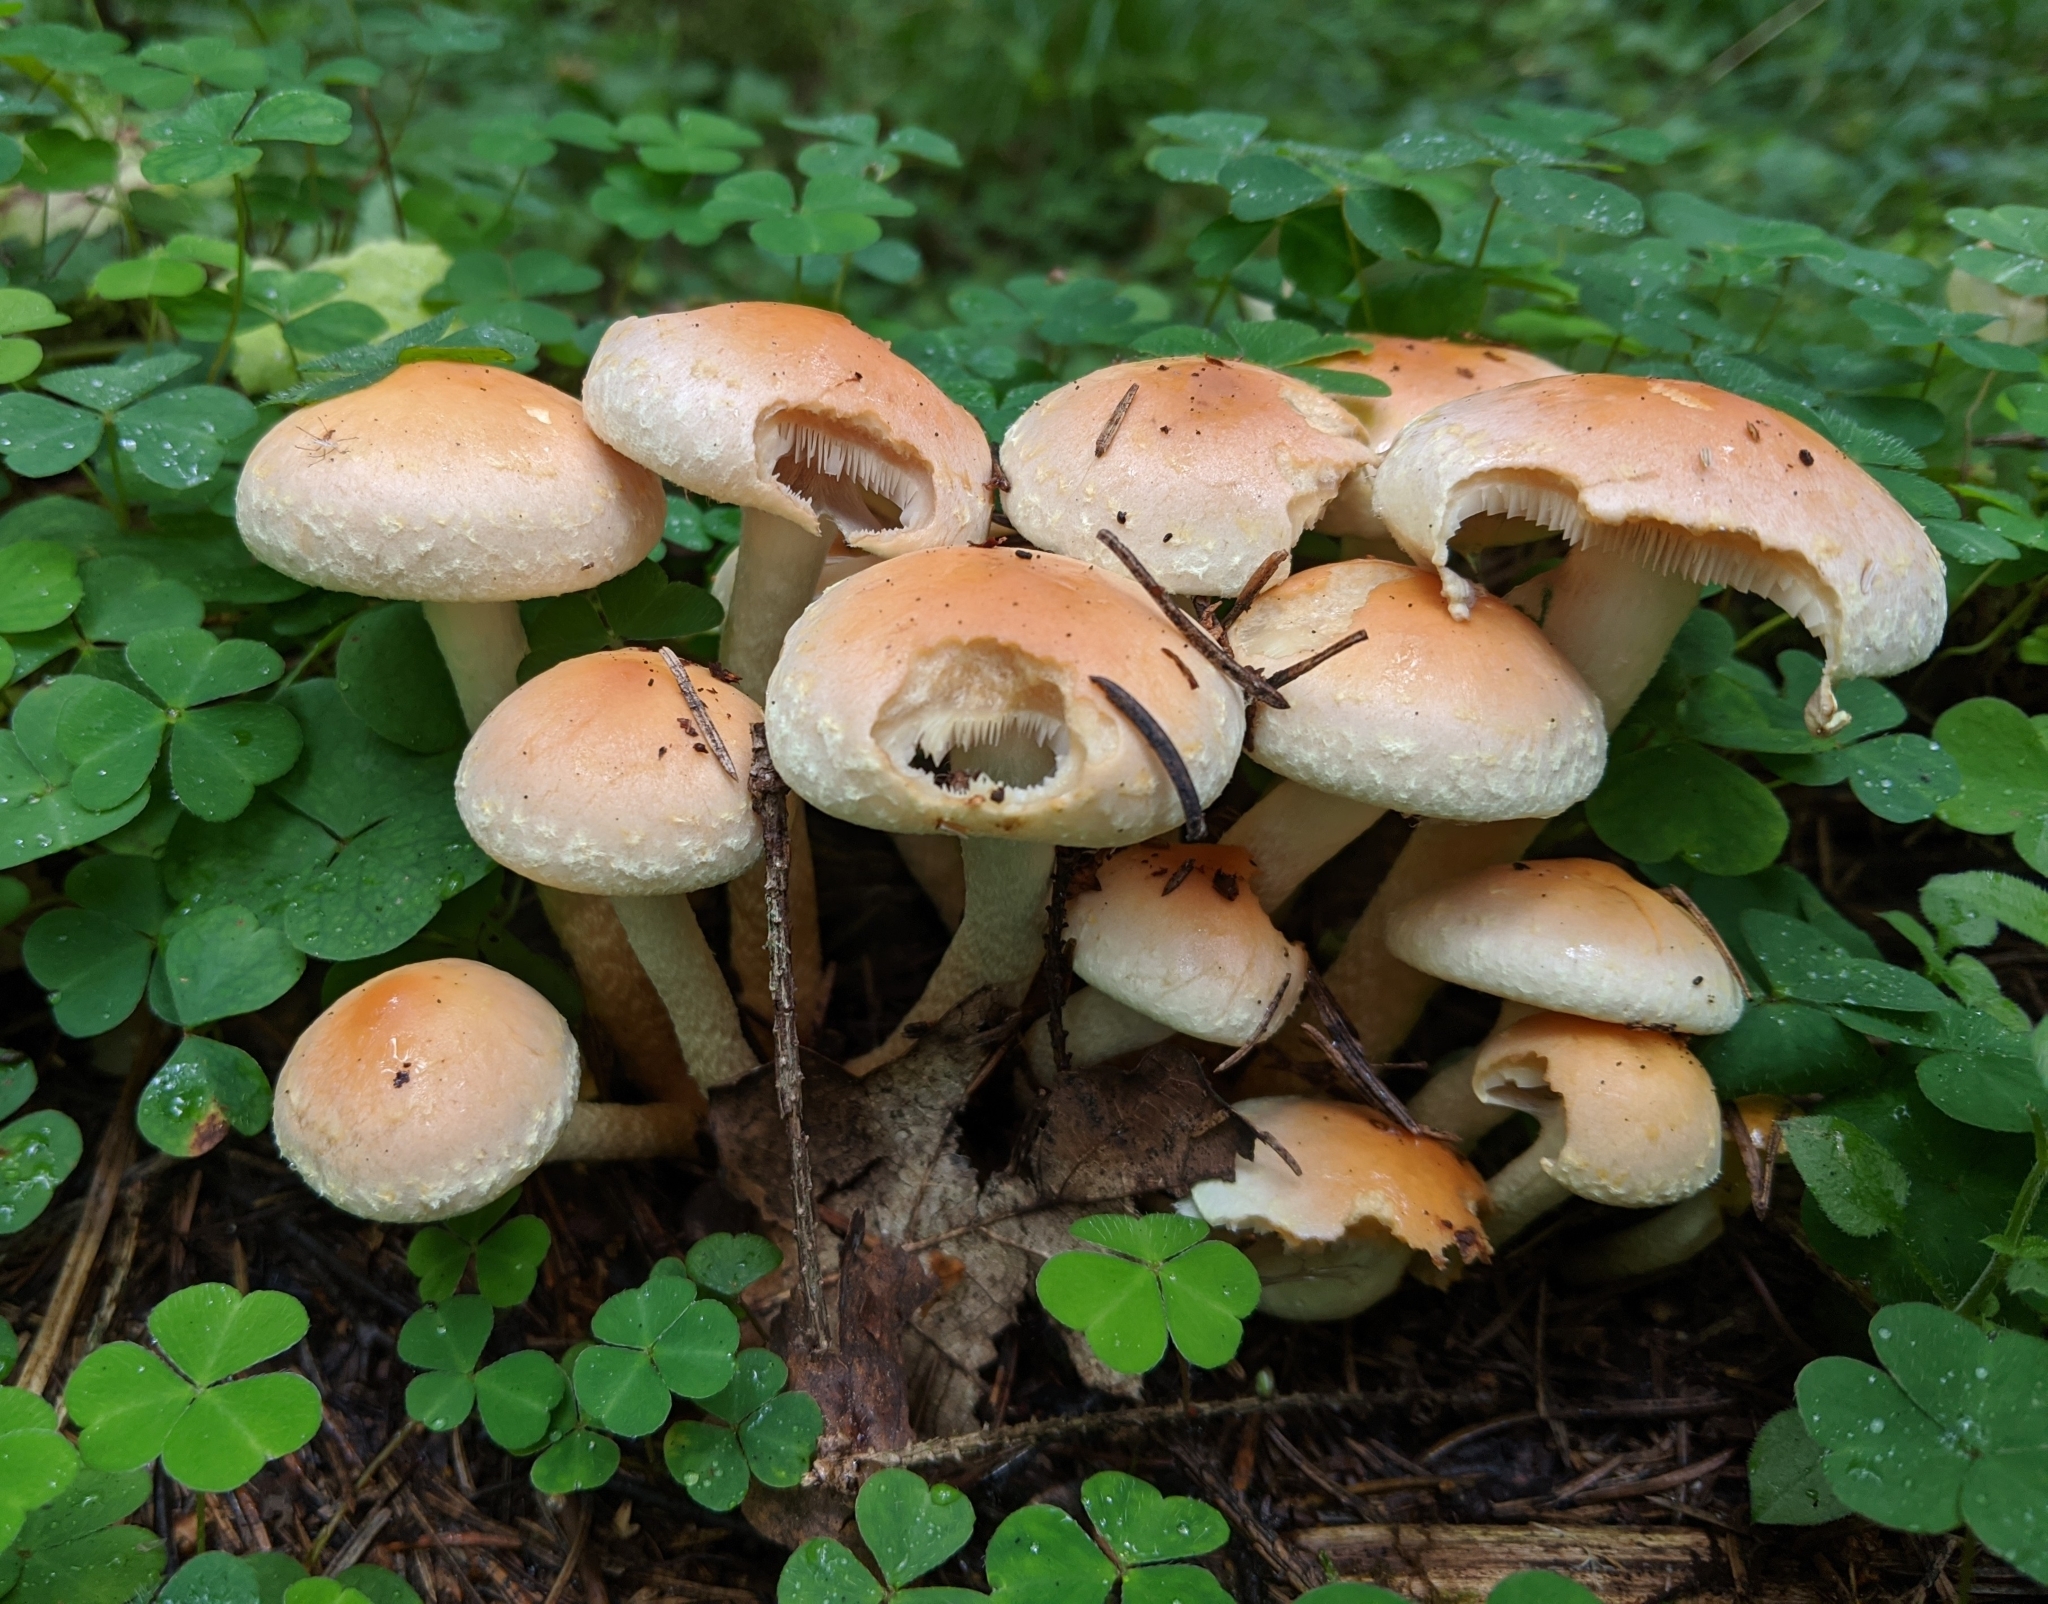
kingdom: Fungi
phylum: Basidiomycota
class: Agaricomycetes
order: Agaricales
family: Strophariaceae
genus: Hypholoma
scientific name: Hypholoma lateritium
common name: Brick caps
